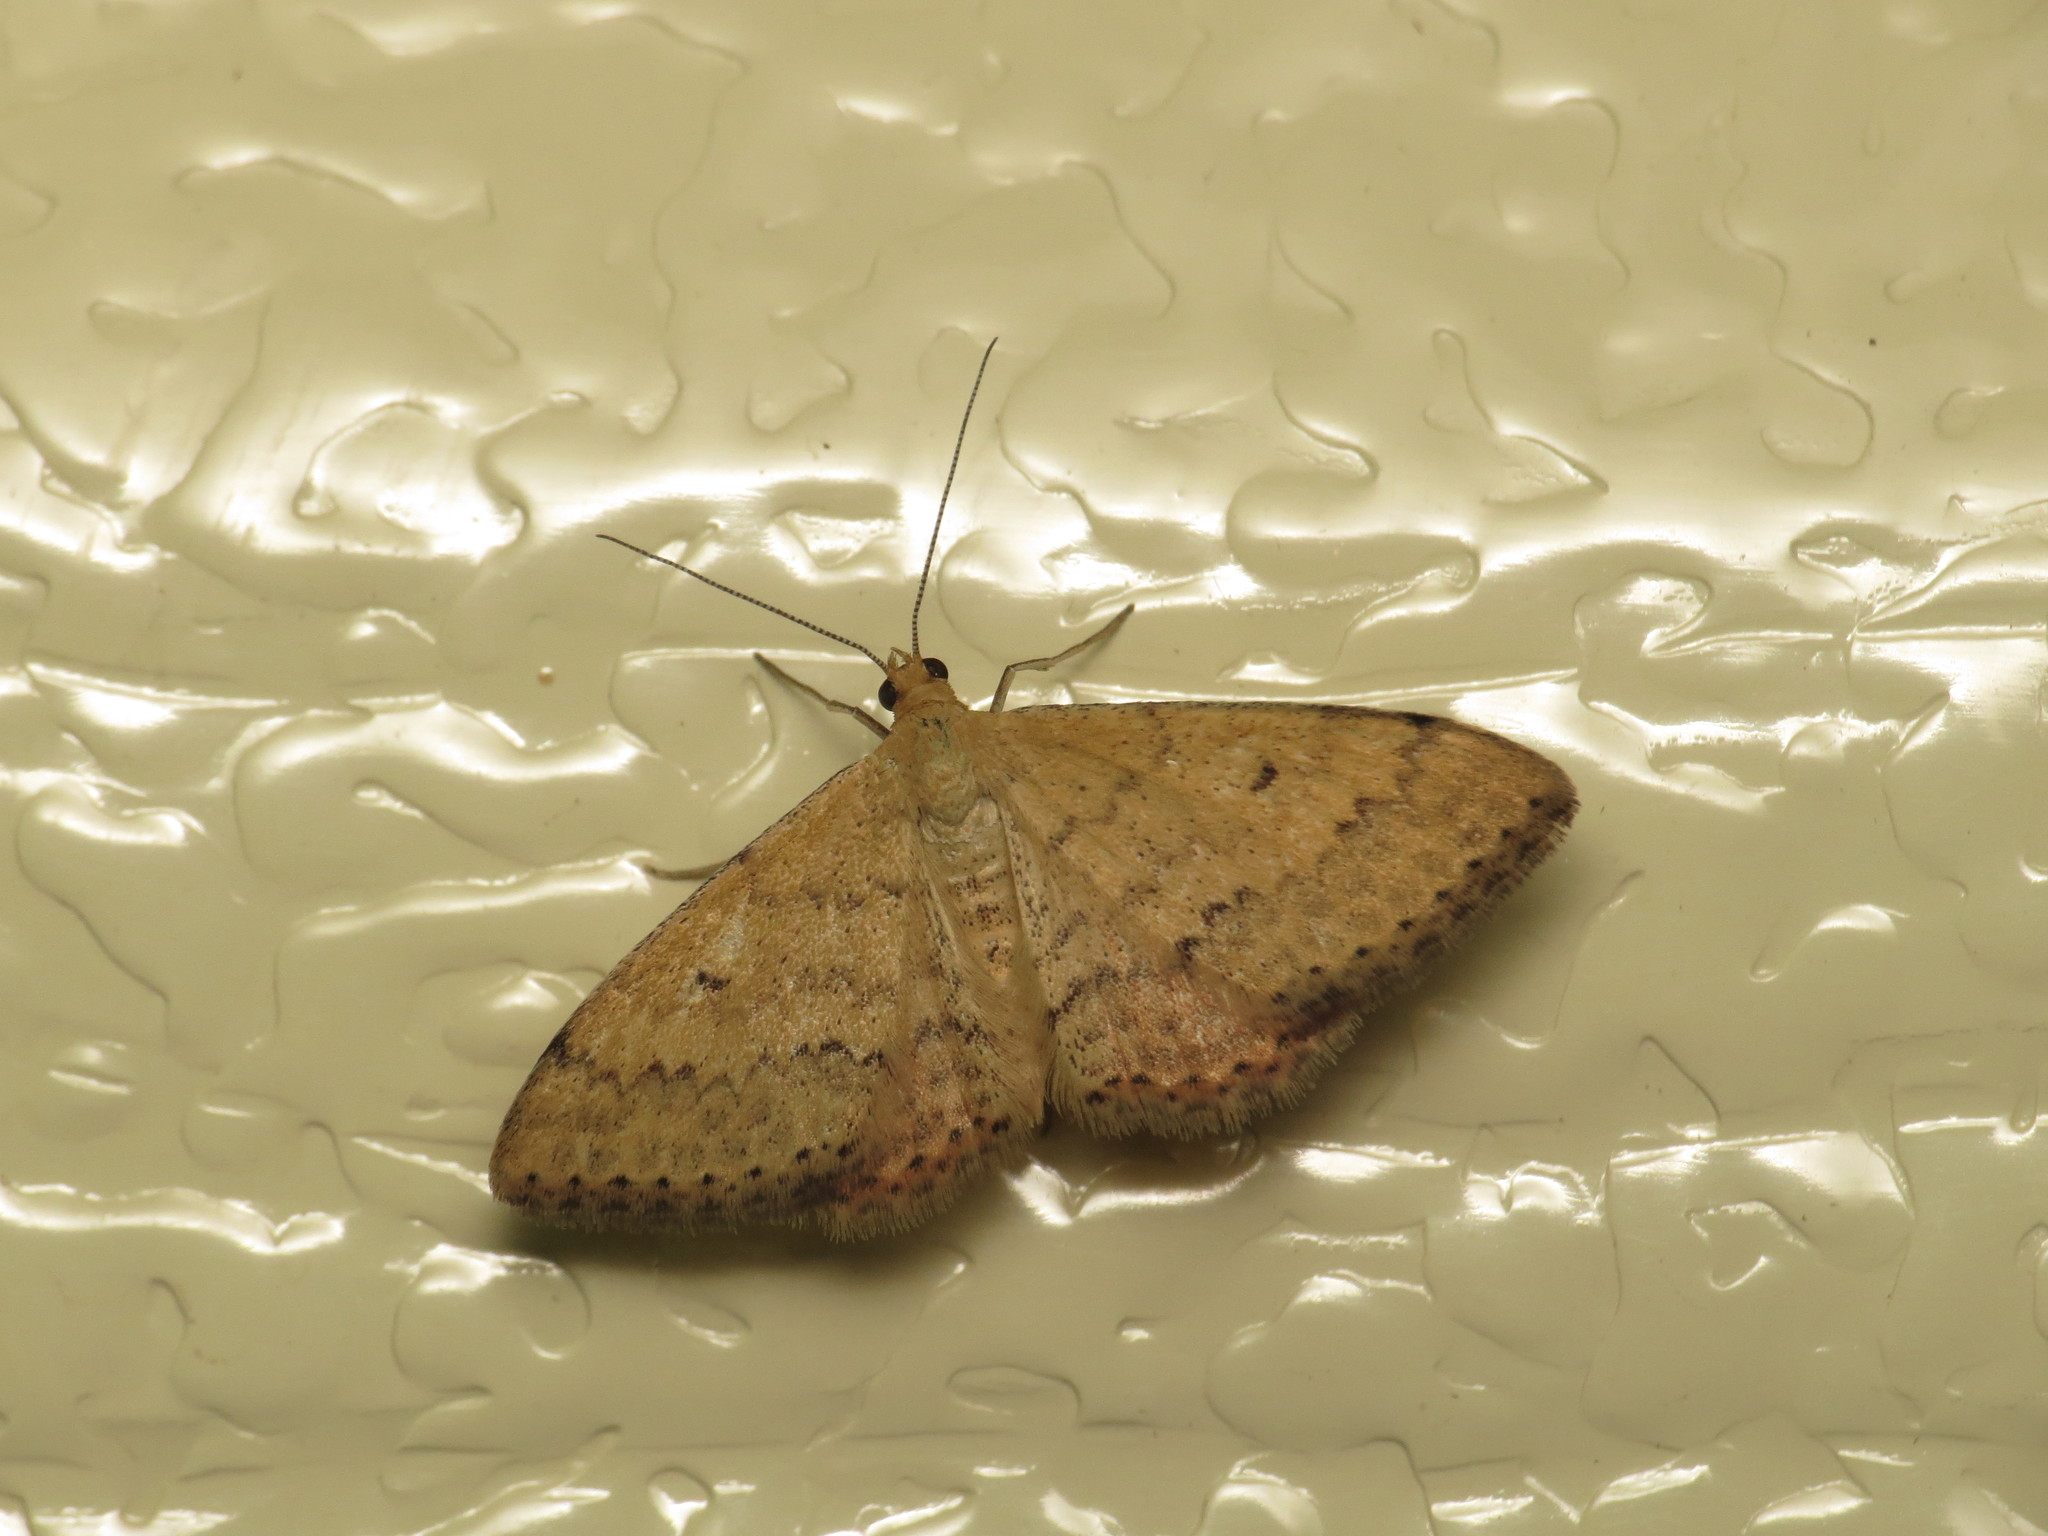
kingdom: Animalia
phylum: Arthropoda
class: Insecta
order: Lepidoptera
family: Geometridae
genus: Scopula
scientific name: Scopula rubraria
